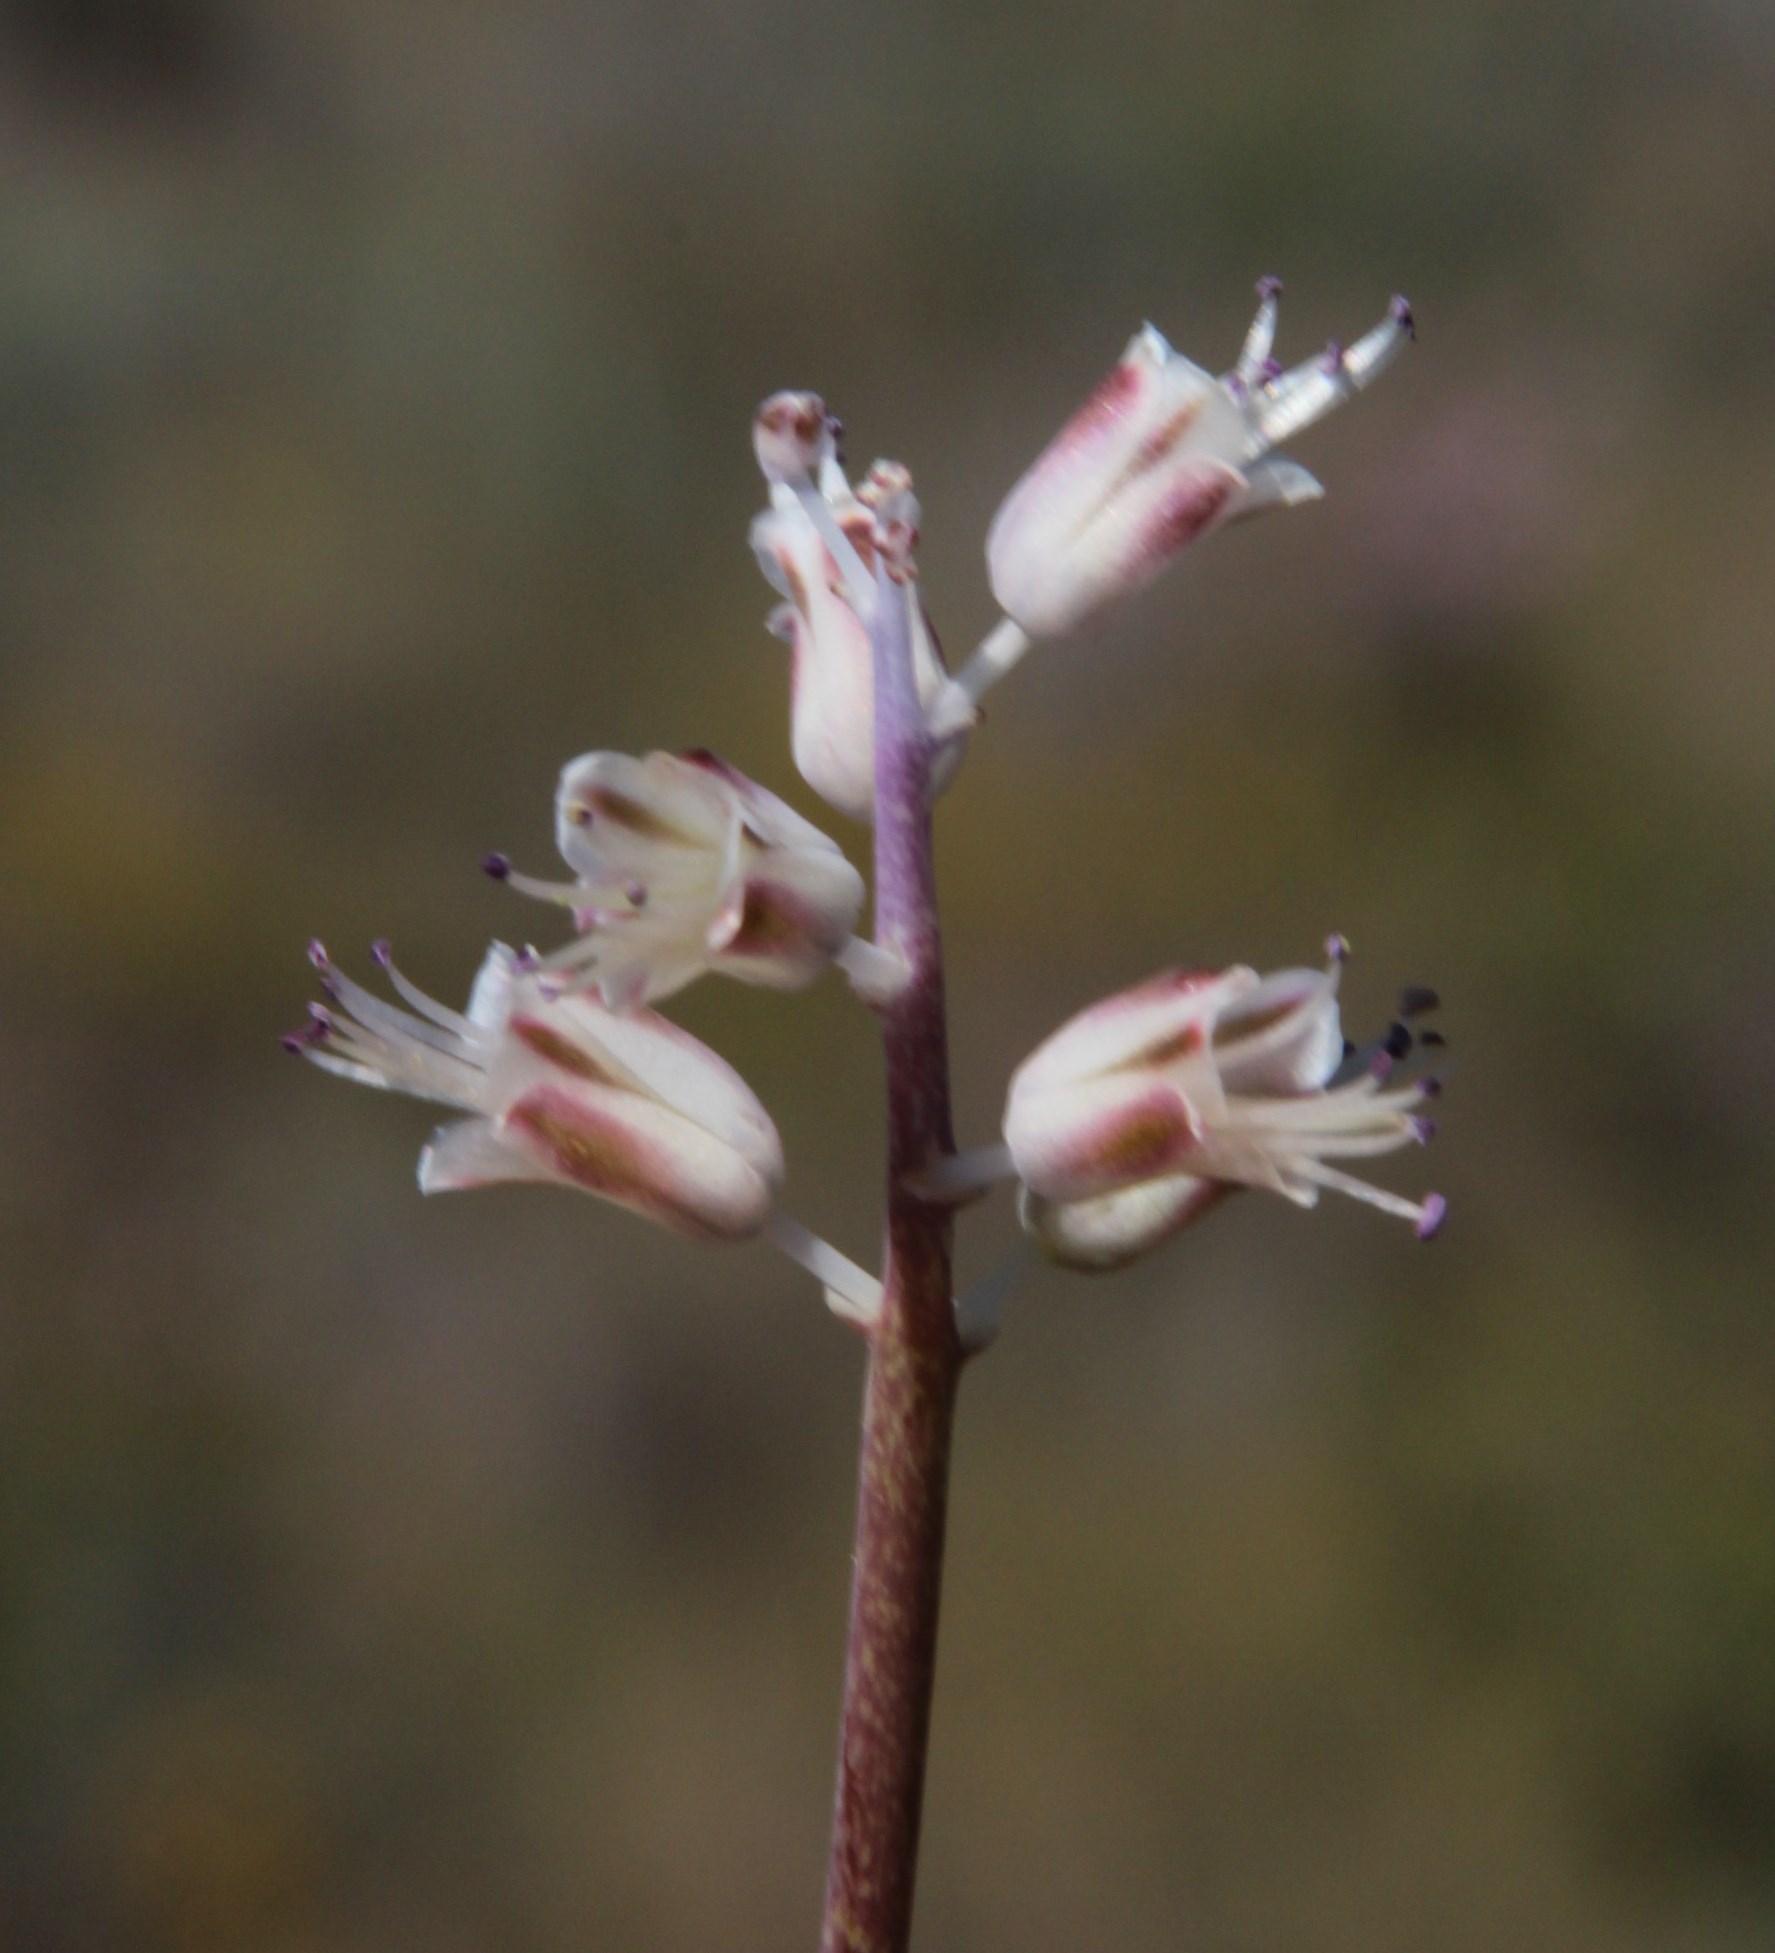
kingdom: Plantae
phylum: Tracheophyta
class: Liliopsida
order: Asparagales
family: Asparagaceae
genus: Lachenalia
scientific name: Lachenalia juncifolia
